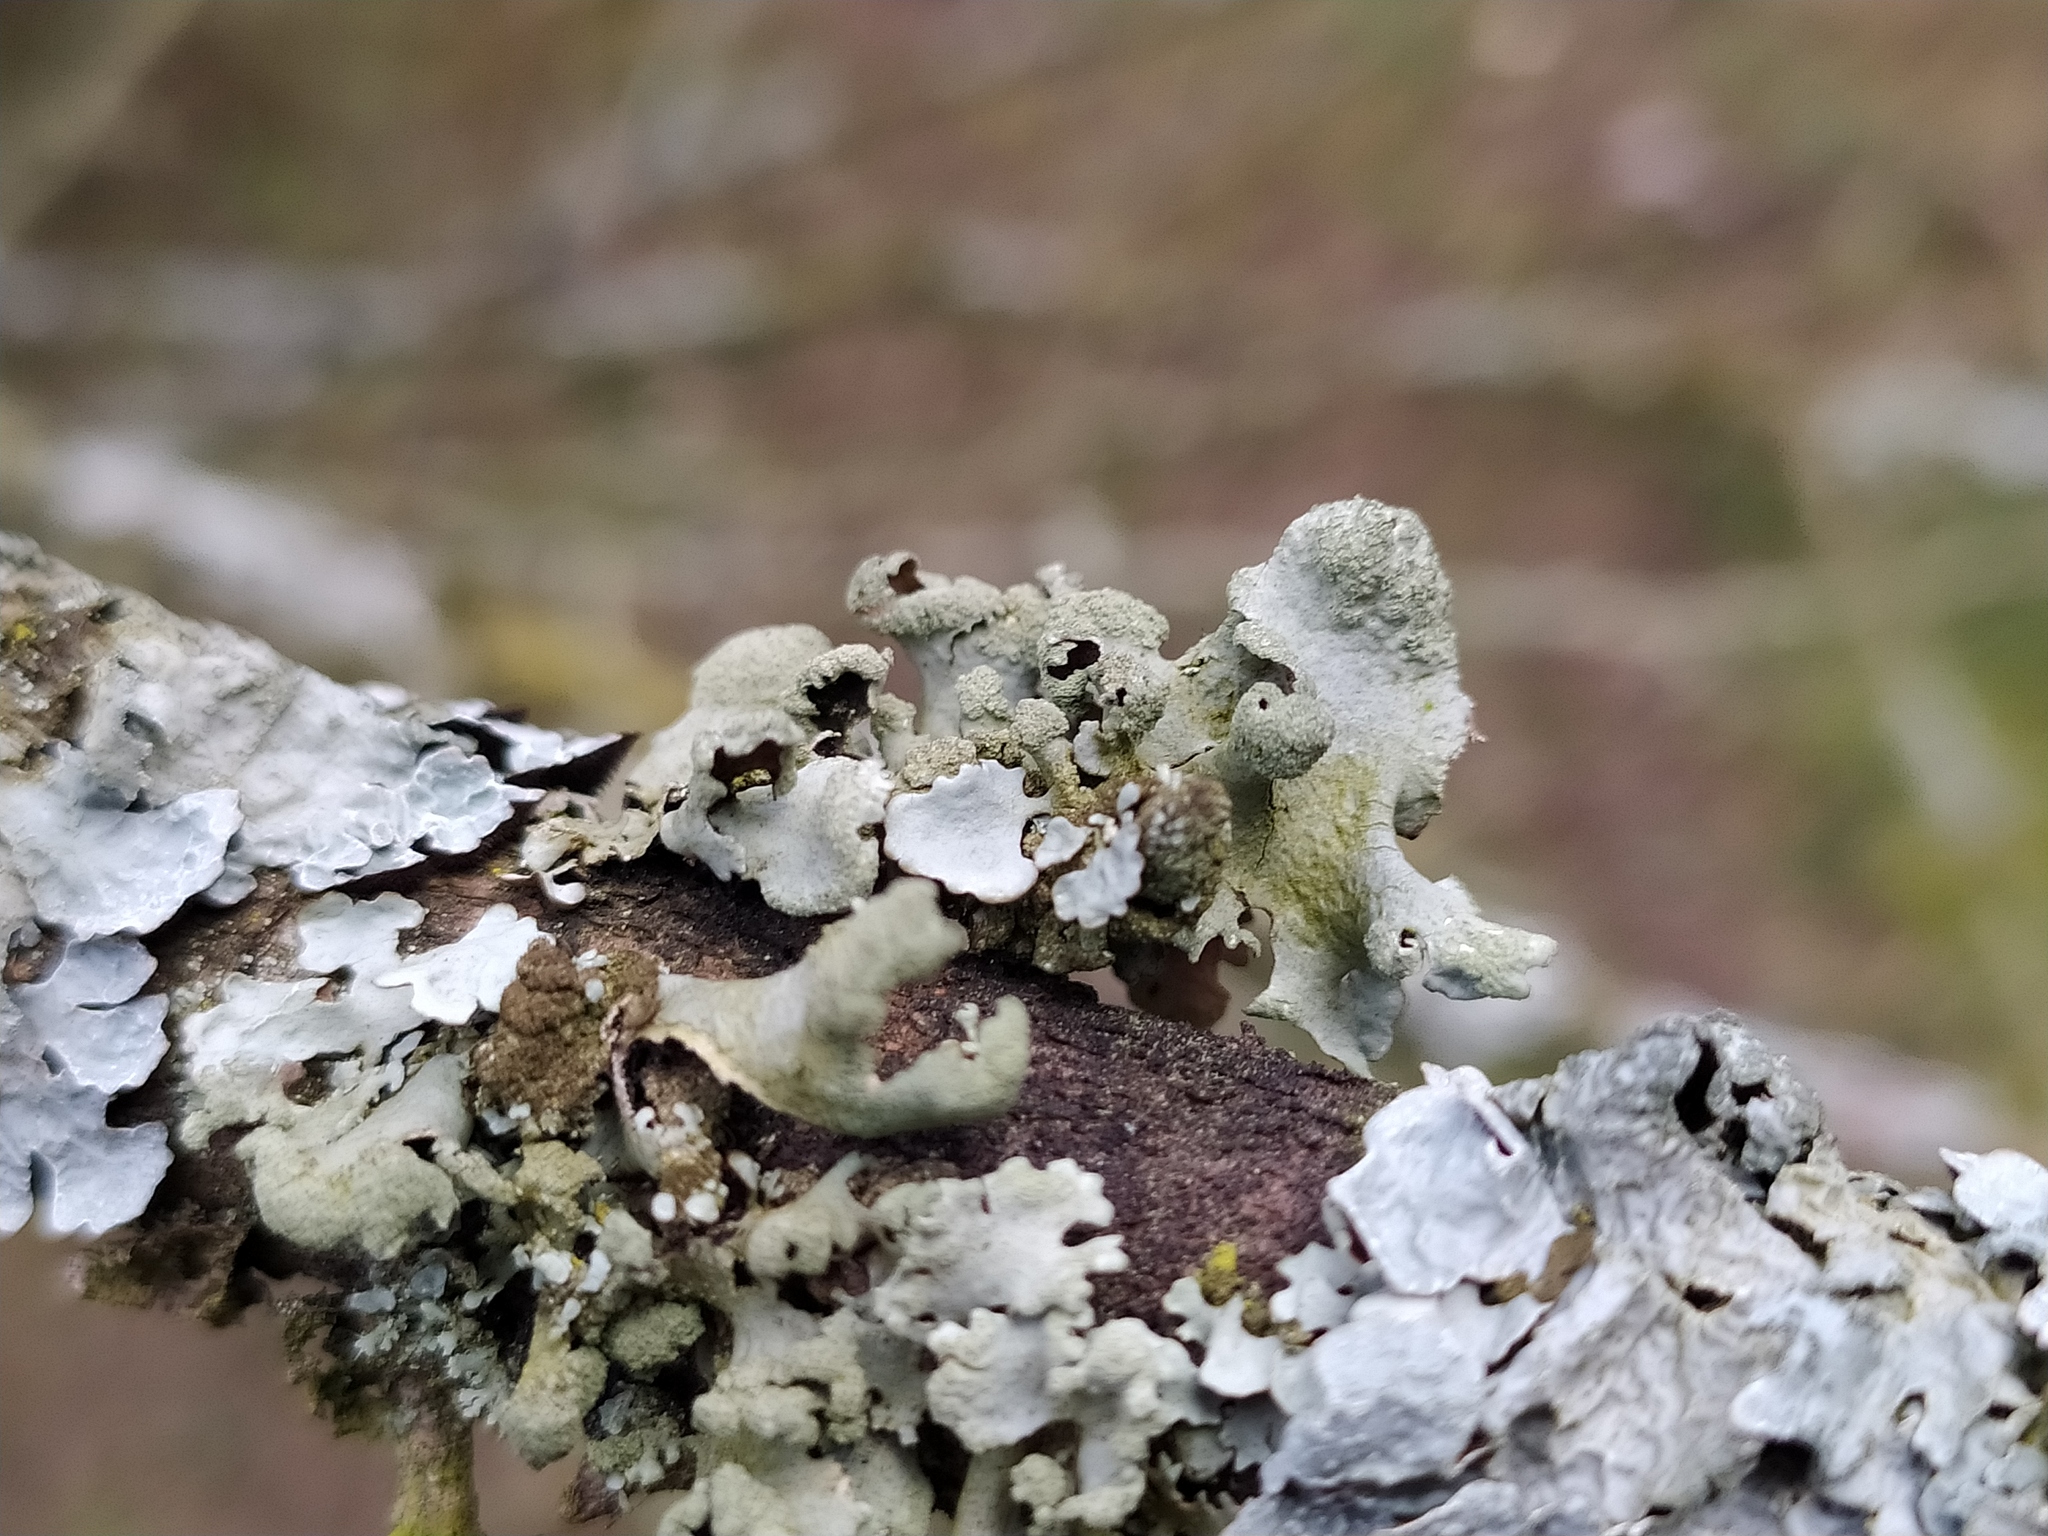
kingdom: Fungi
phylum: Ascomycota
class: Lecanoromycetes
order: Lecanorales
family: Parmeliaceae
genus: Hypotrachyna
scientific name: Hypotrachyna revoluta
